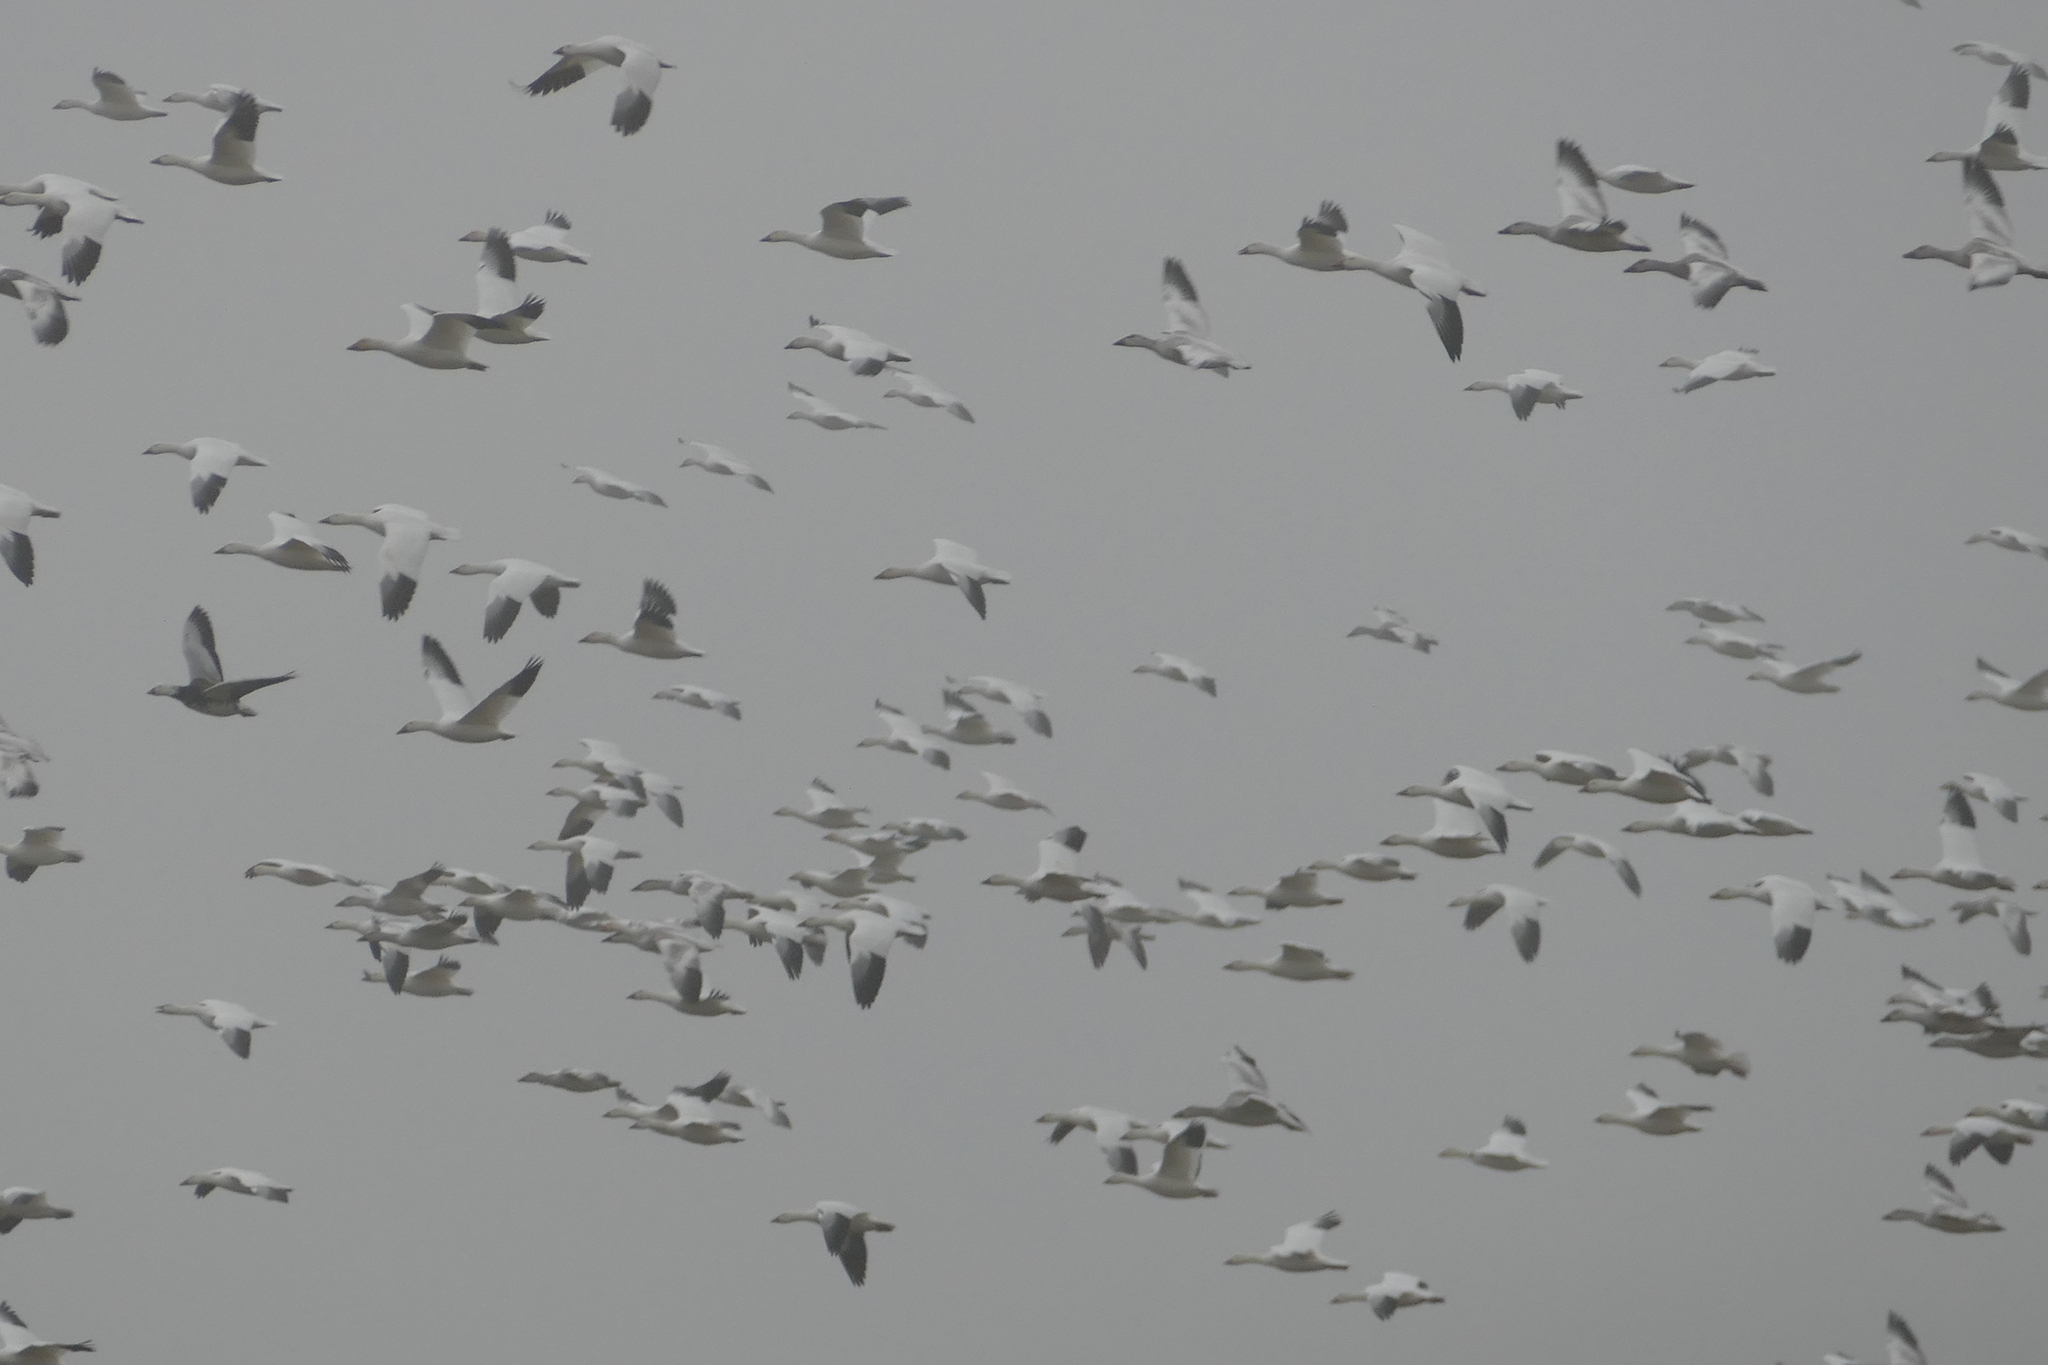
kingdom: Animalia
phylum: Chordata
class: Aves
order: Anseriformes
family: Anatidae
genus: Anser
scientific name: Anser caerulescens
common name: Snow goose
